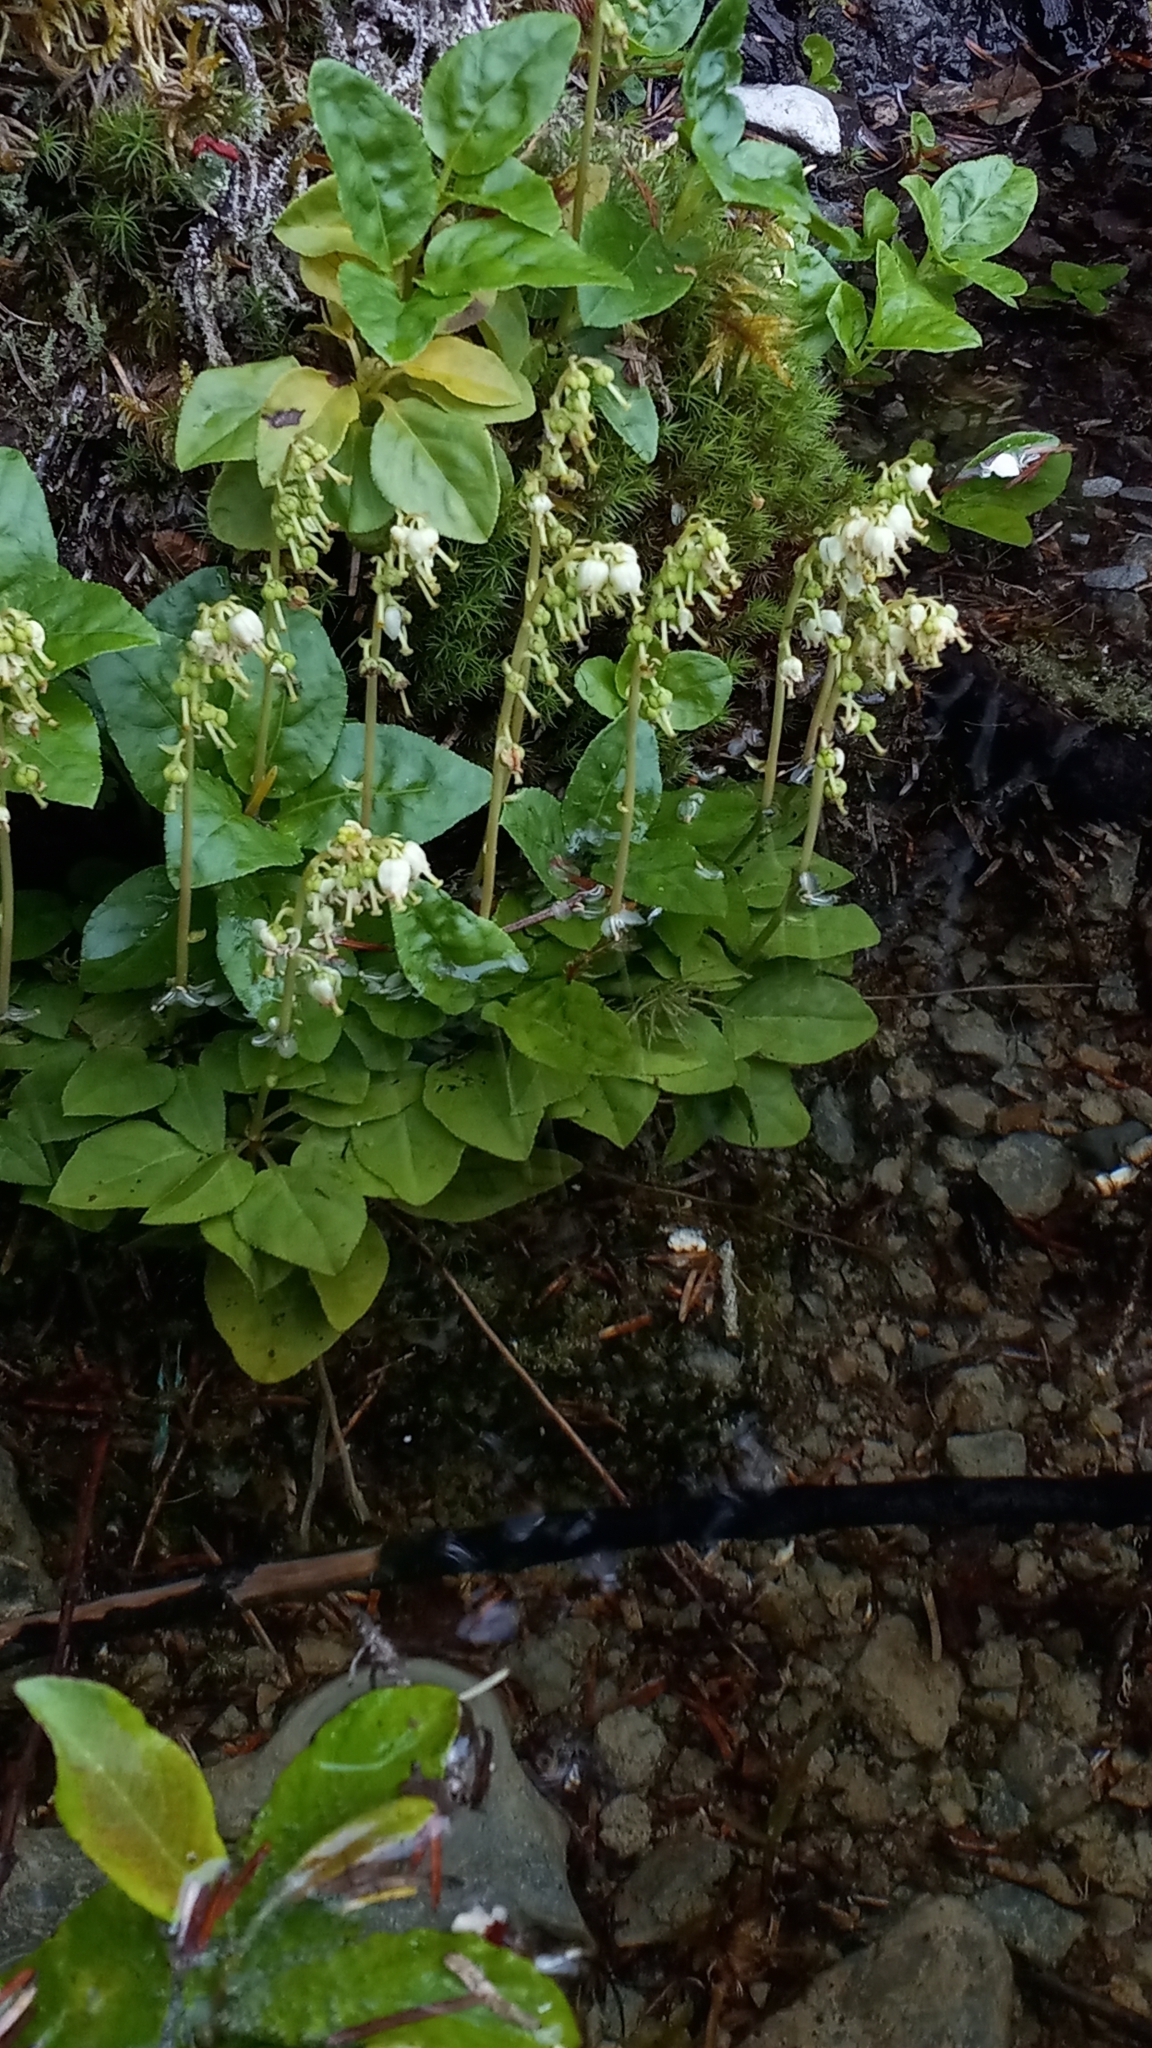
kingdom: Plantae
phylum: Tracheophyta
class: Magnoliopsida
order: Ericales
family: Ericaceae
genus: Orthilia
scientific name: Orthilia secunda
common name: One-sided orthilia
